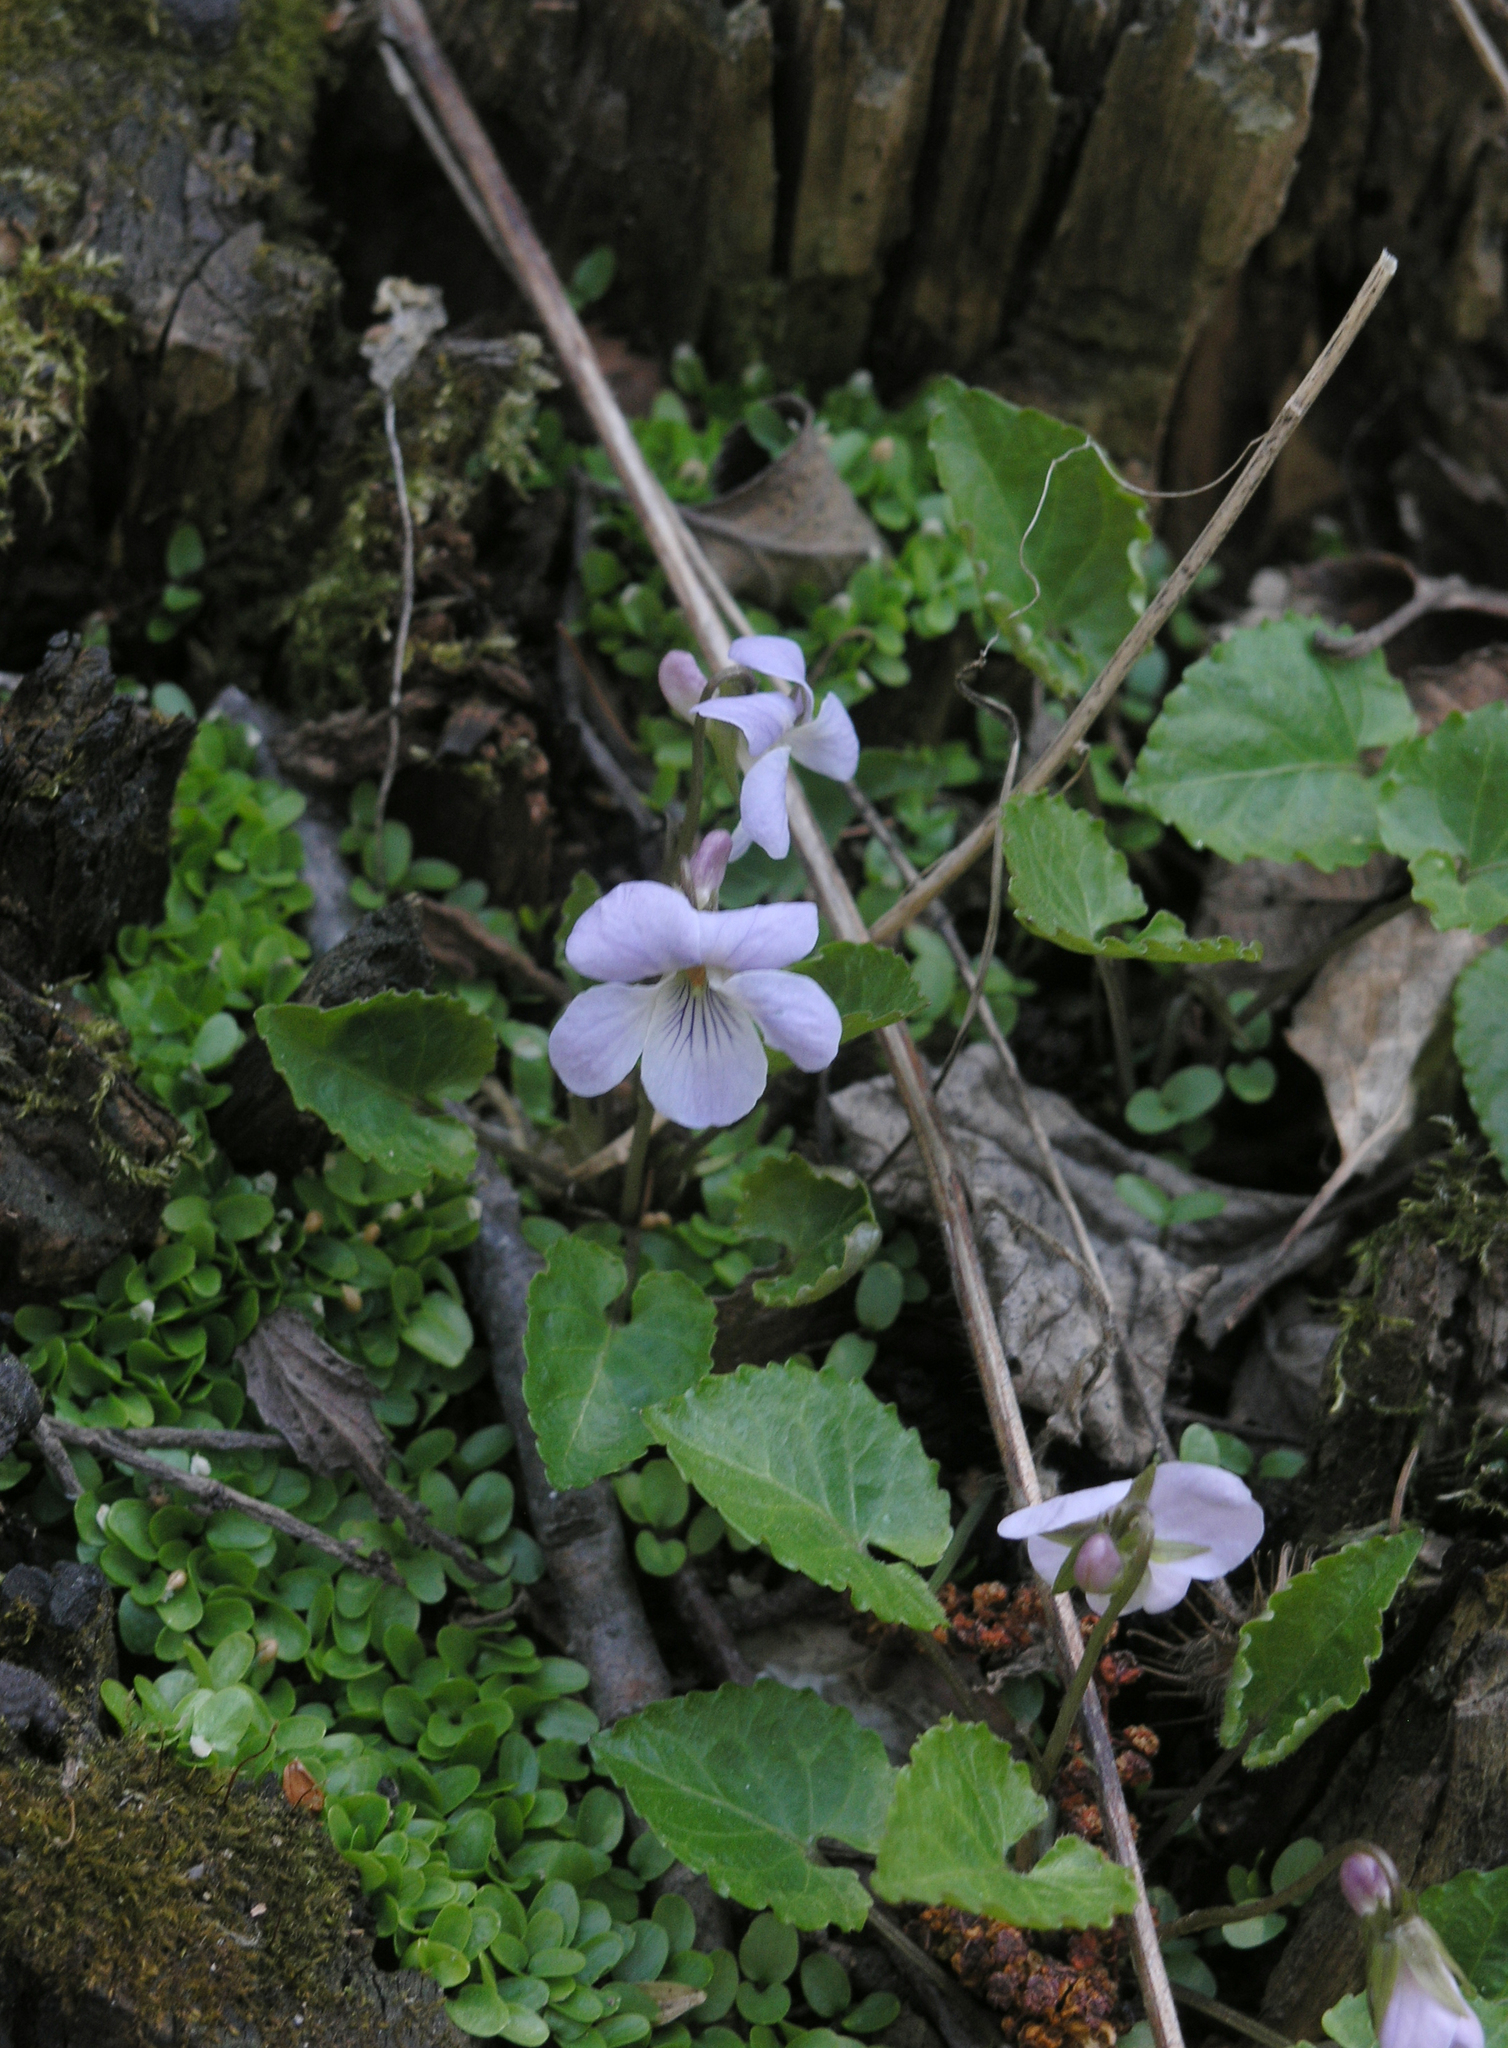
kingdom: Plantae
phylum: Tracheophyta
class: Magnoliopsida
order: Malpighiales
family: Violaceae
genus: Viola
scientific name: Viola selkirkii
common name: Selkirk's violet
